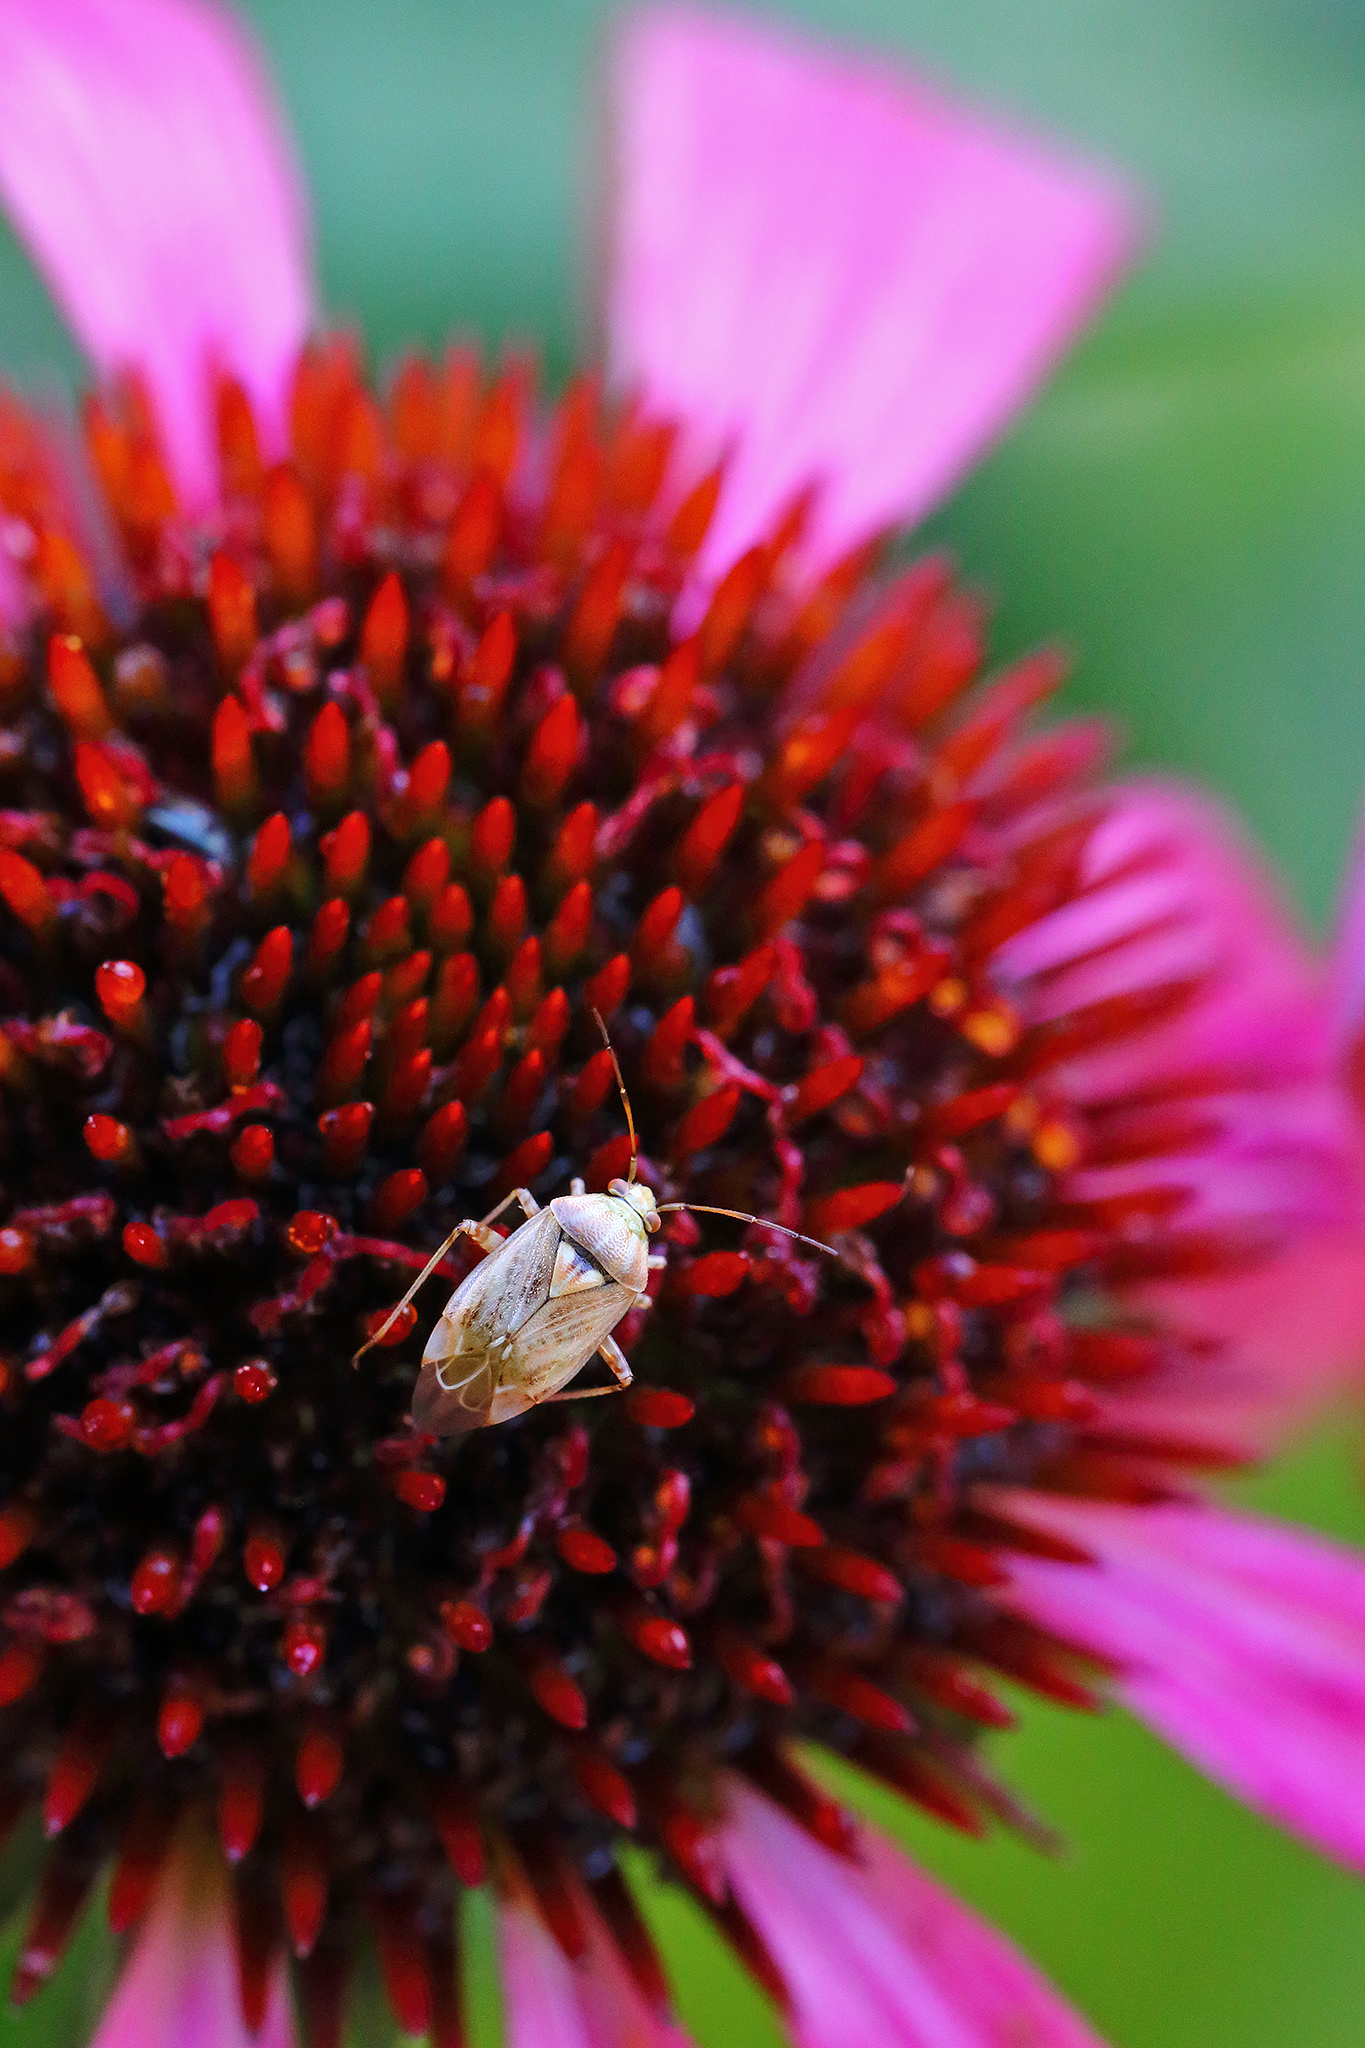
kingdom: Animalia
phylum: Arthropoda
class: Insecta
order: Hemiptera
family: Miridae
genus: Lygus
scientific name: Lygus rugulipennis
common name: European tarnished plant bug
